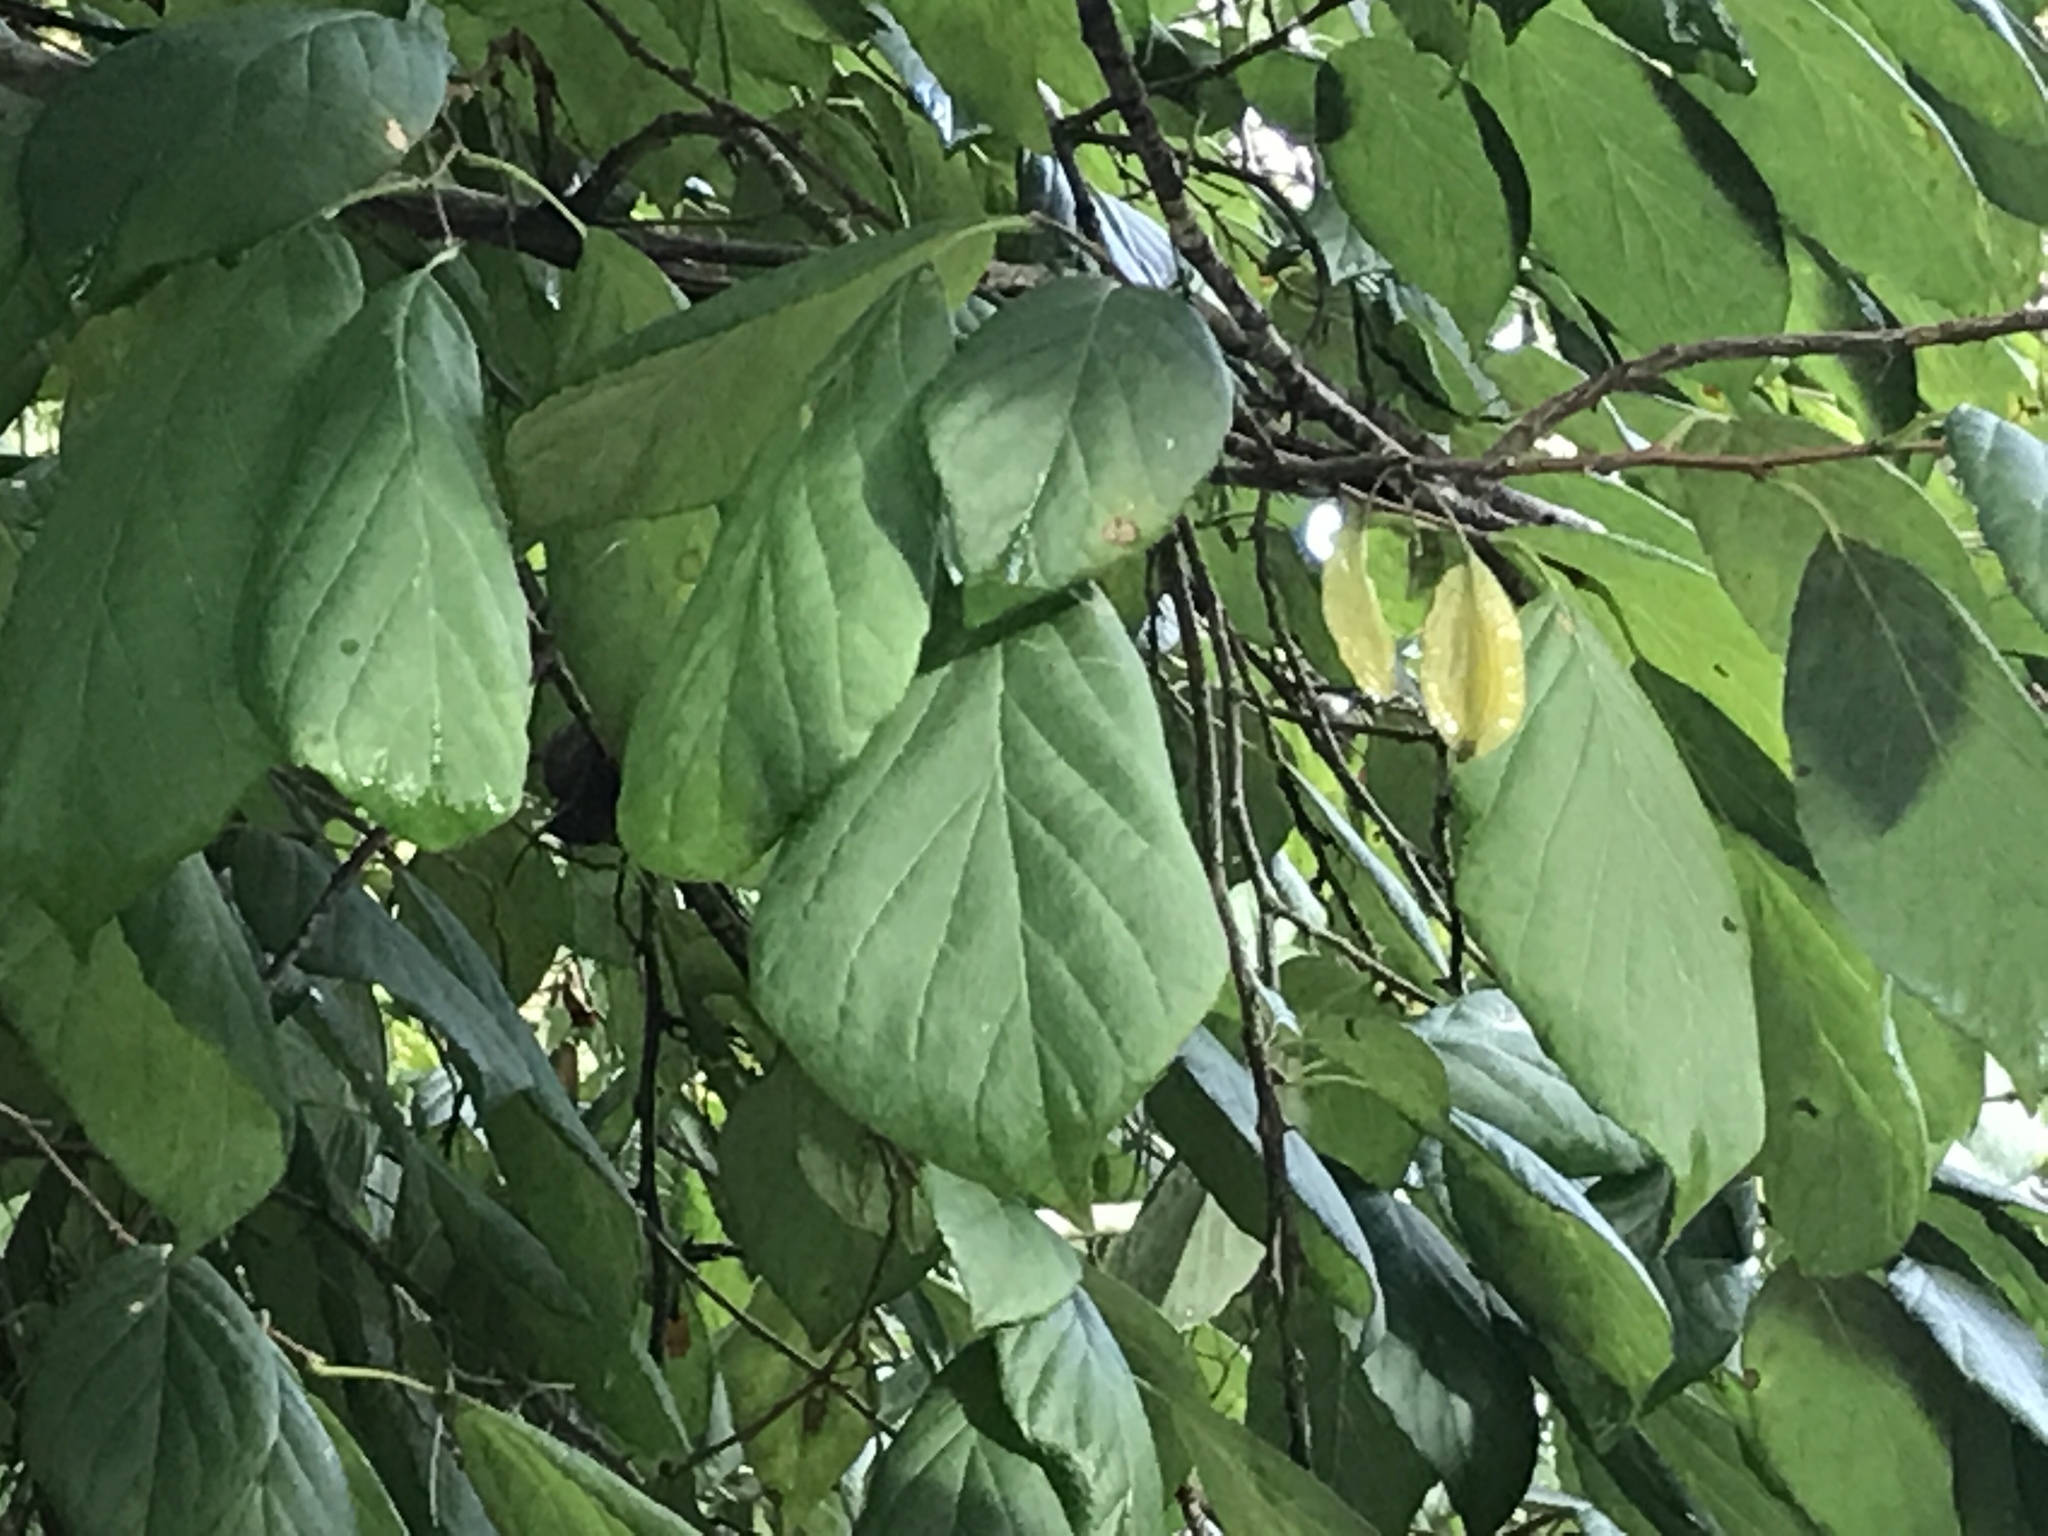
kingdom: Plantae
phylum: Tracheophyta
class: Magnoliopsida
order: Ericales
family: Styracaceae
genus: Halesia
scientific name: Halesia diptera
